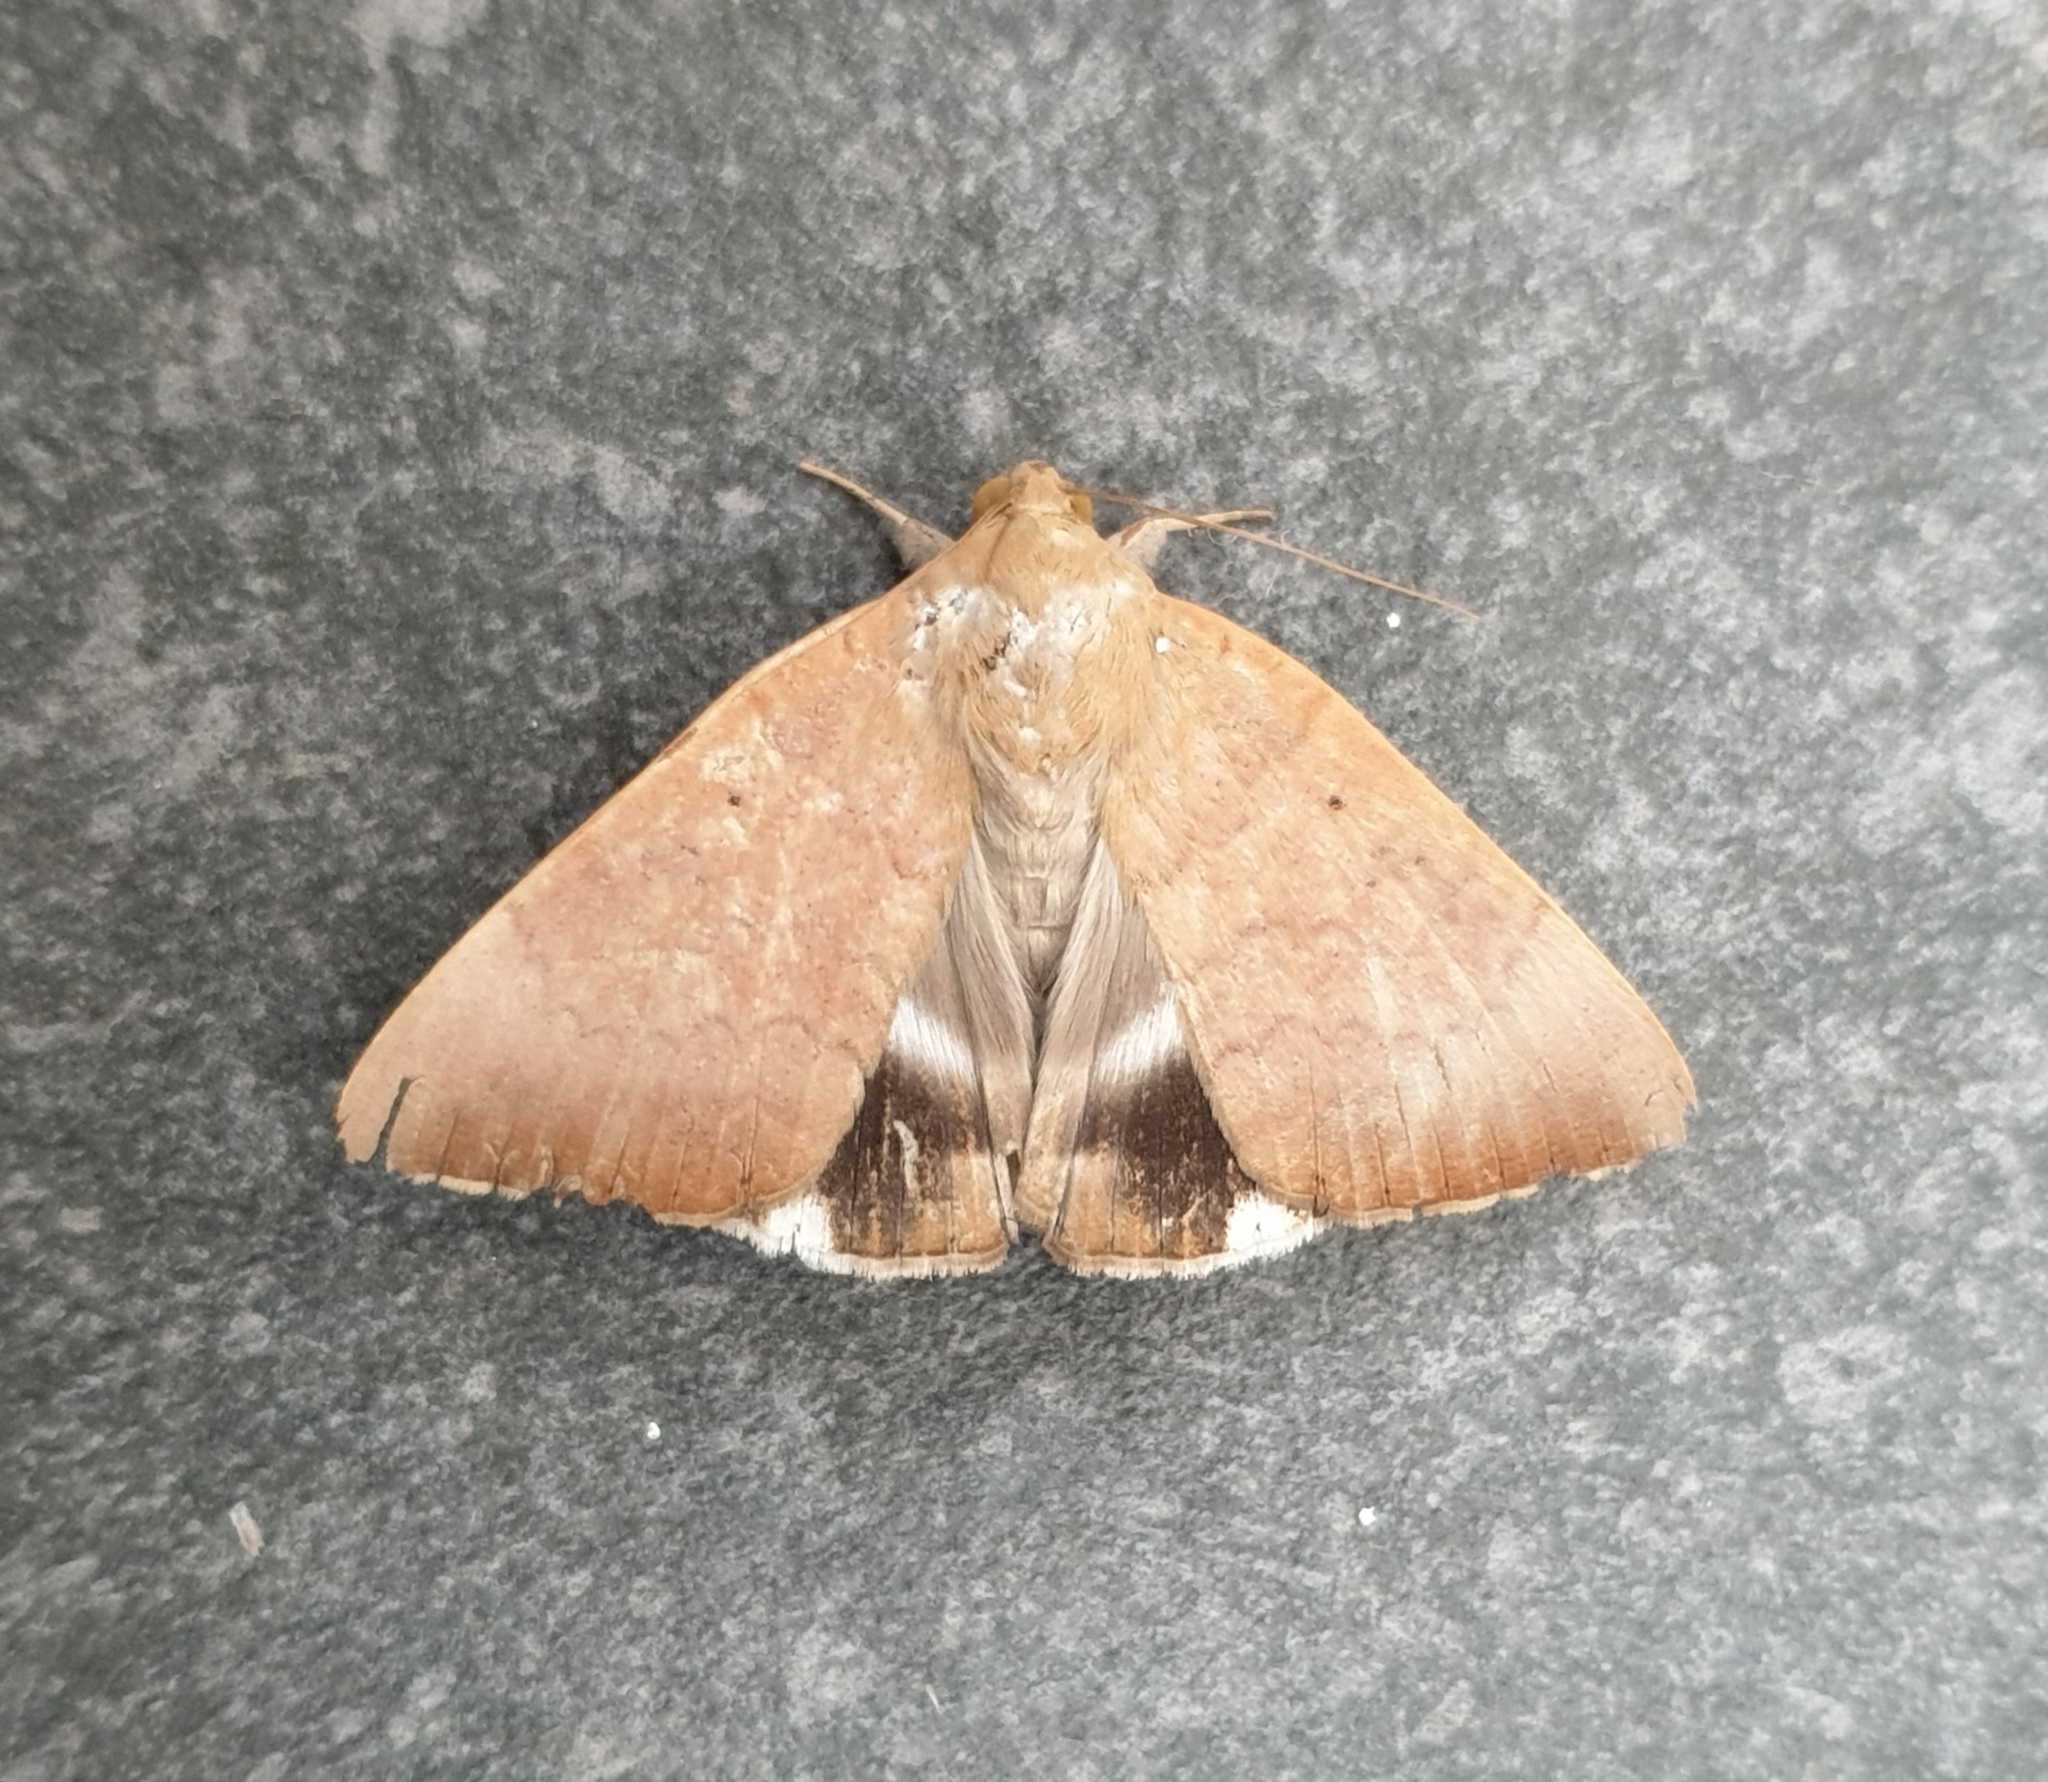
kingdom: Animalia
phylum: Arthropoda
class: Insecta
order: Lepidoptera
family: Erebidae
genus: Achaea
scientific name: Achaea serva
